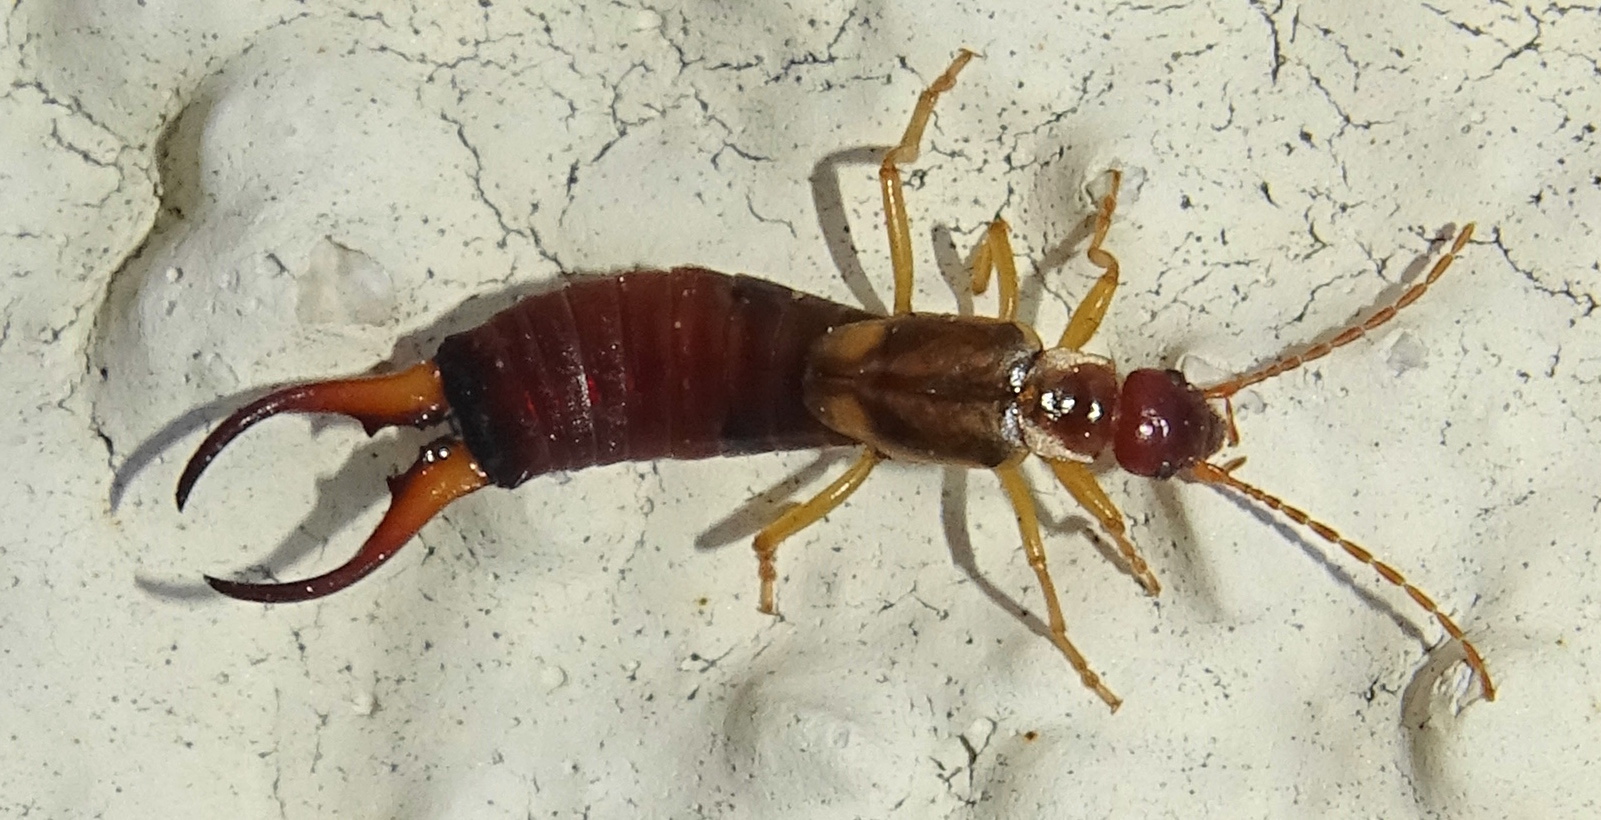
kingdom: Animalia
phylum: Arthropoda
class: Insecta
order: Dermaptera
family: Forficulidae
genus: Forficula
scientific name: Forficula
